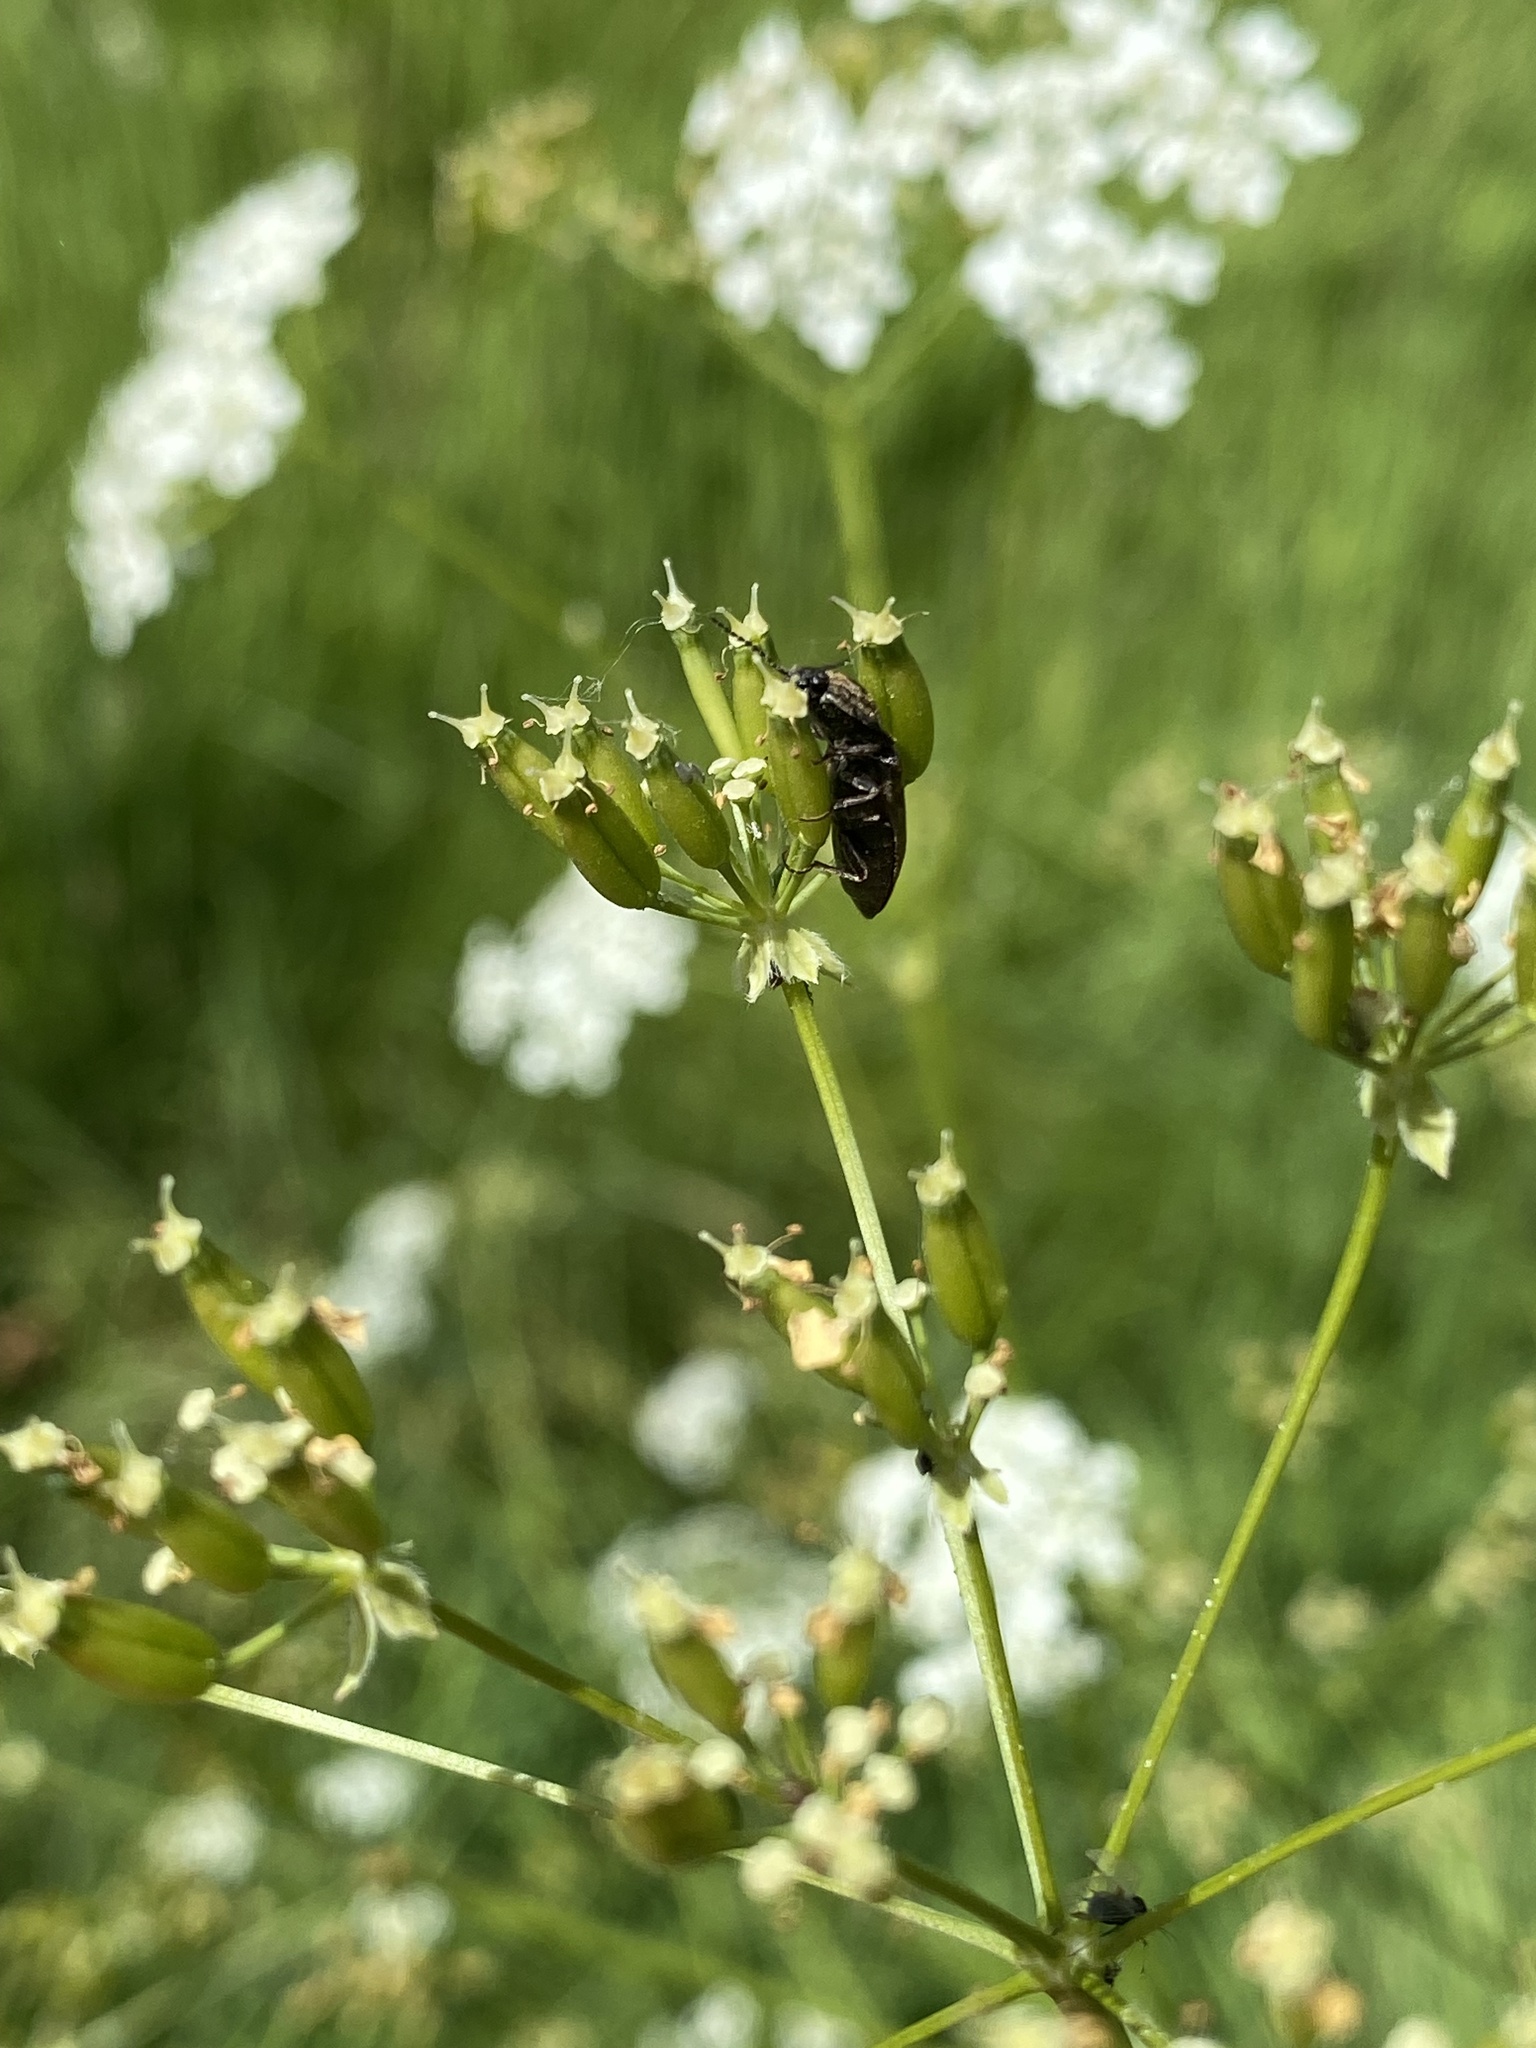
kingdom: Animalia
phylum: Arthropoda
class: Insecta
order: Coleoptera
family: Elateridae
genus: Prosternon
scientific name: Prosternon tessellatum
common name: Chequered click beetle
